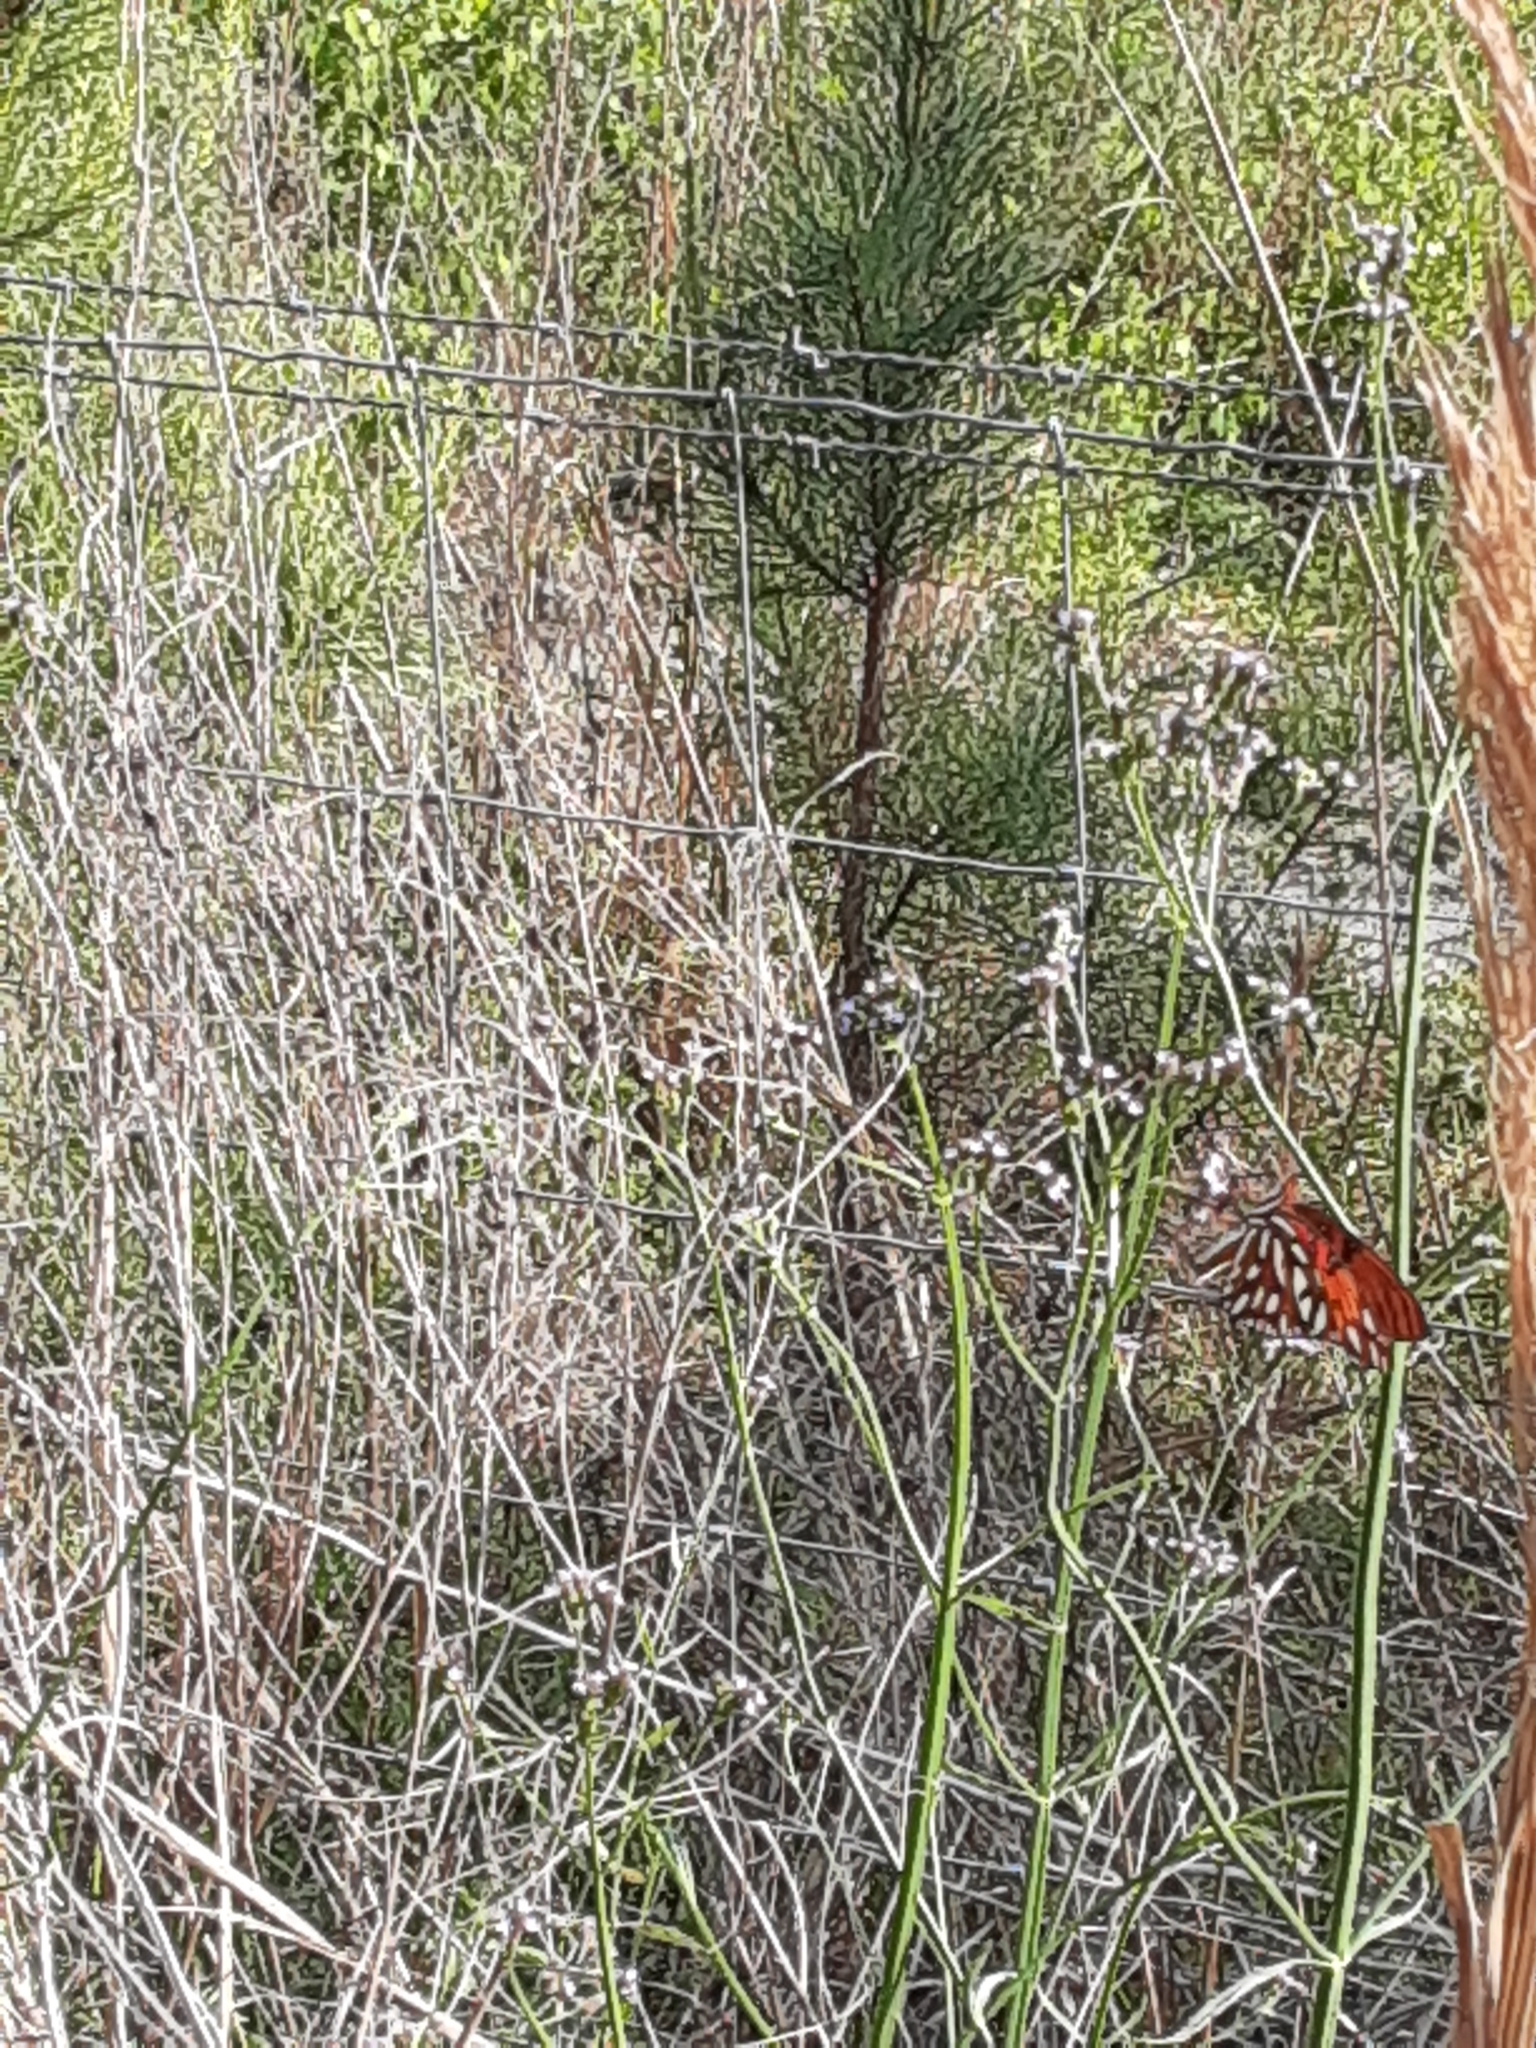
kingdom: Animalia
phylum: Arthropoda
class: Insecta
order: Lepidoptera
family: Nymphalidae
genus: Dione
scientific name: Dione vanillae
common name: Gulf fritillary
